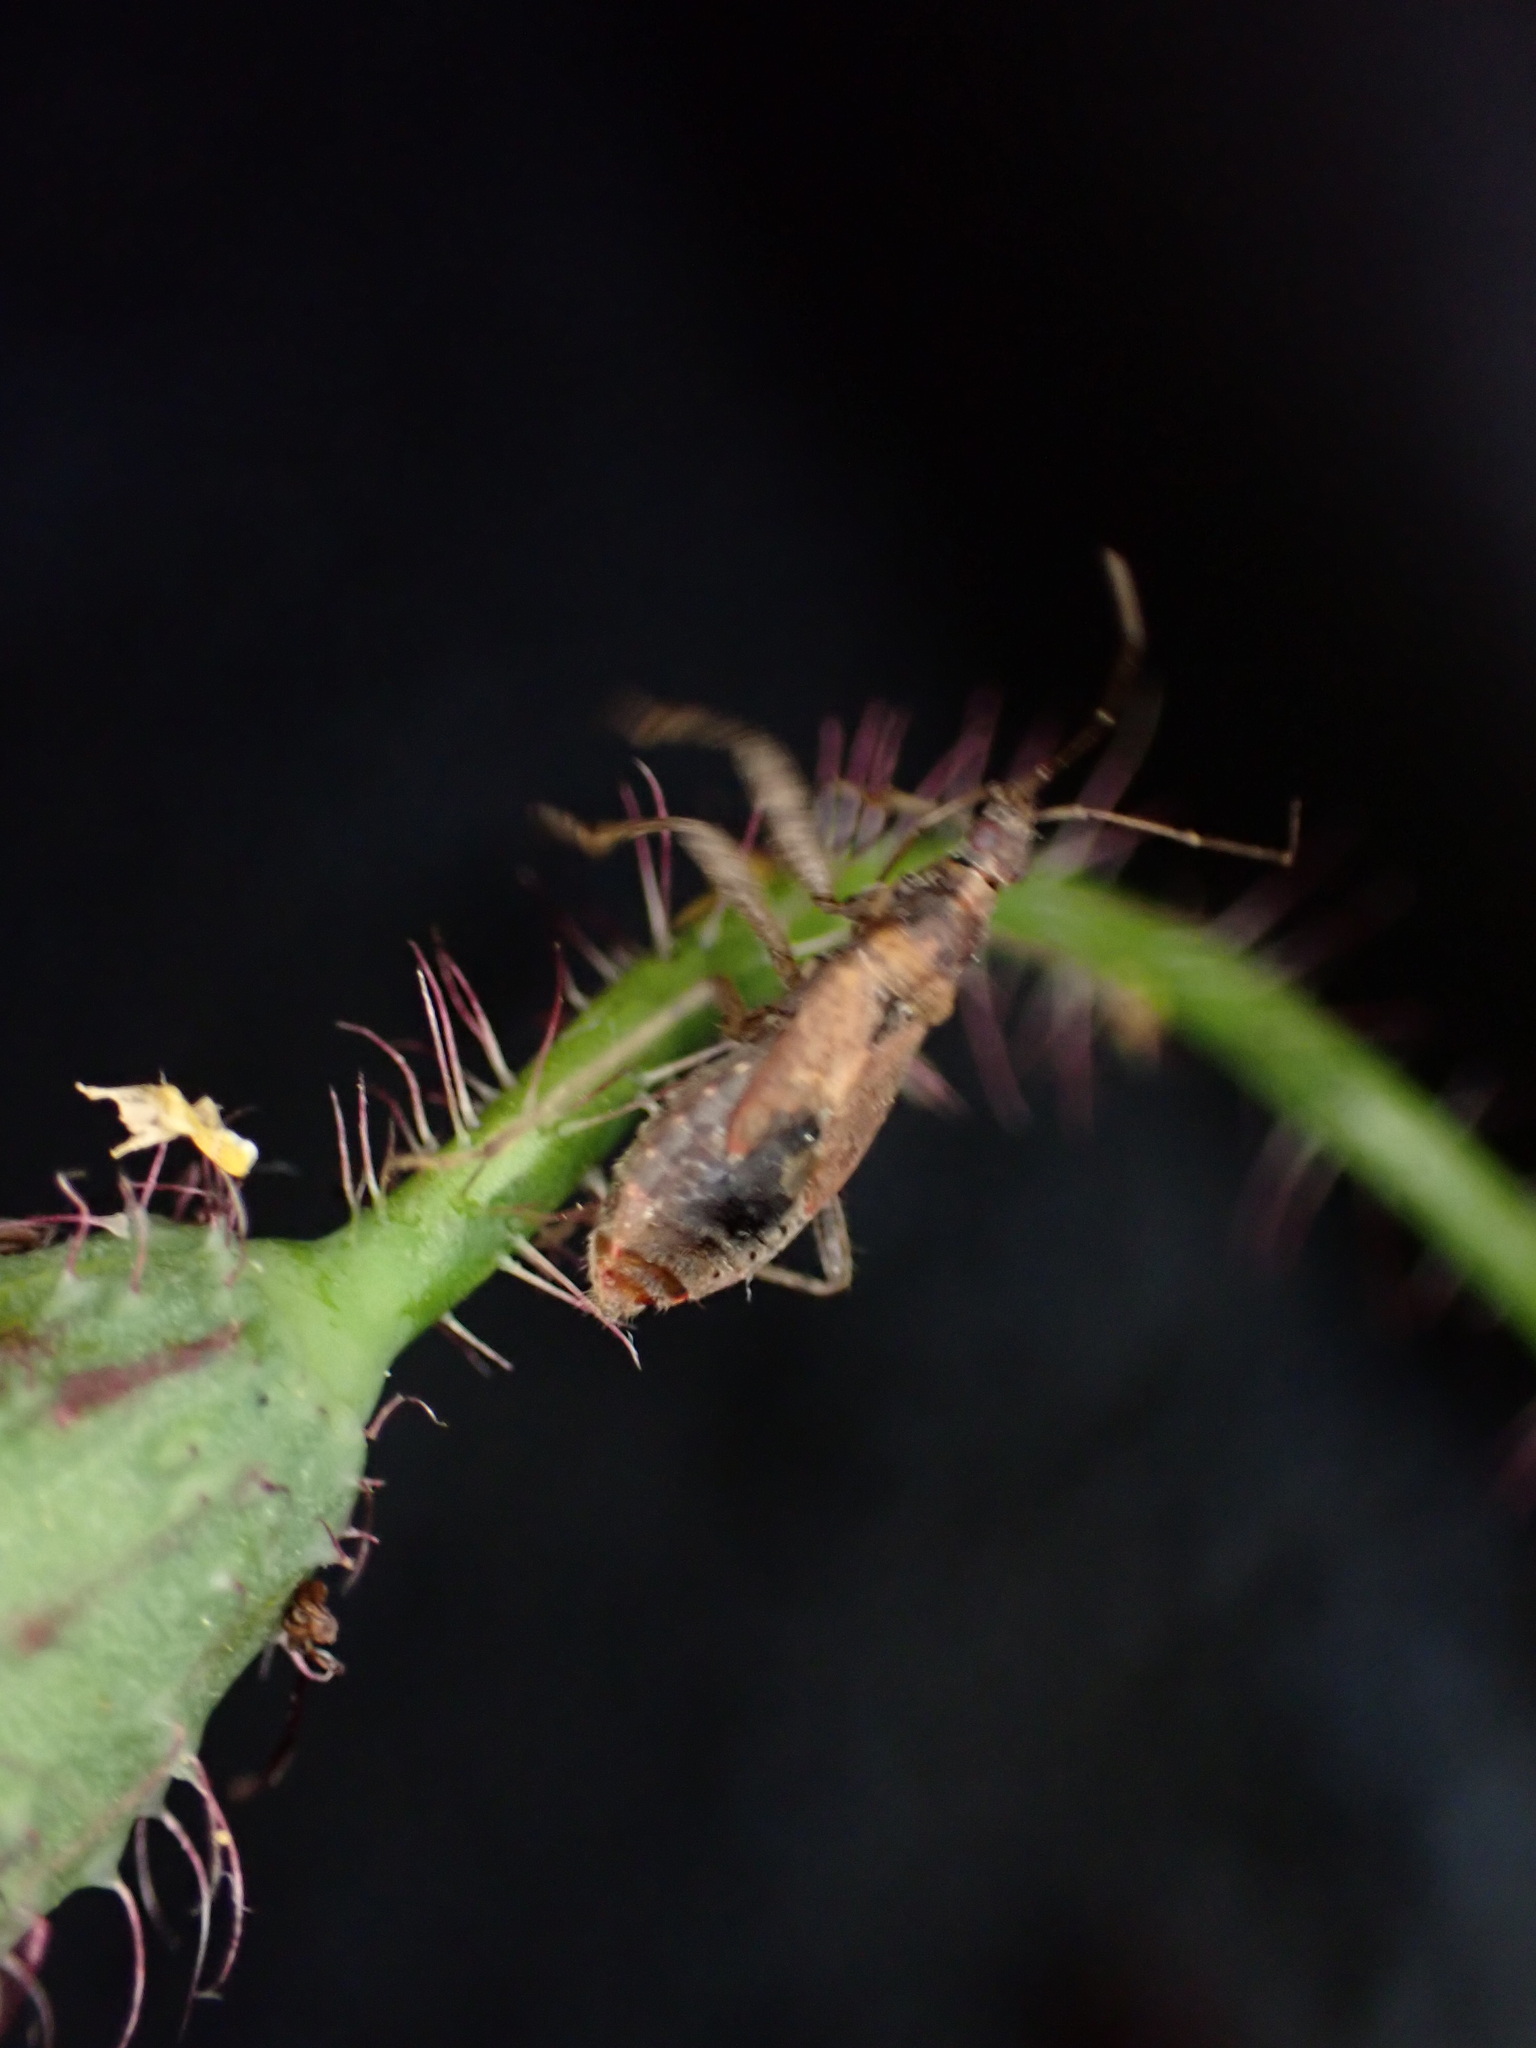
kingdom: Animalia
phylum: Arthropoda
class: Insecta
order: Hemiptera
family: Nabidae
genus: Himacerus
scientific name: Himacerus mirmicoides
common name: Ant damsel bug
